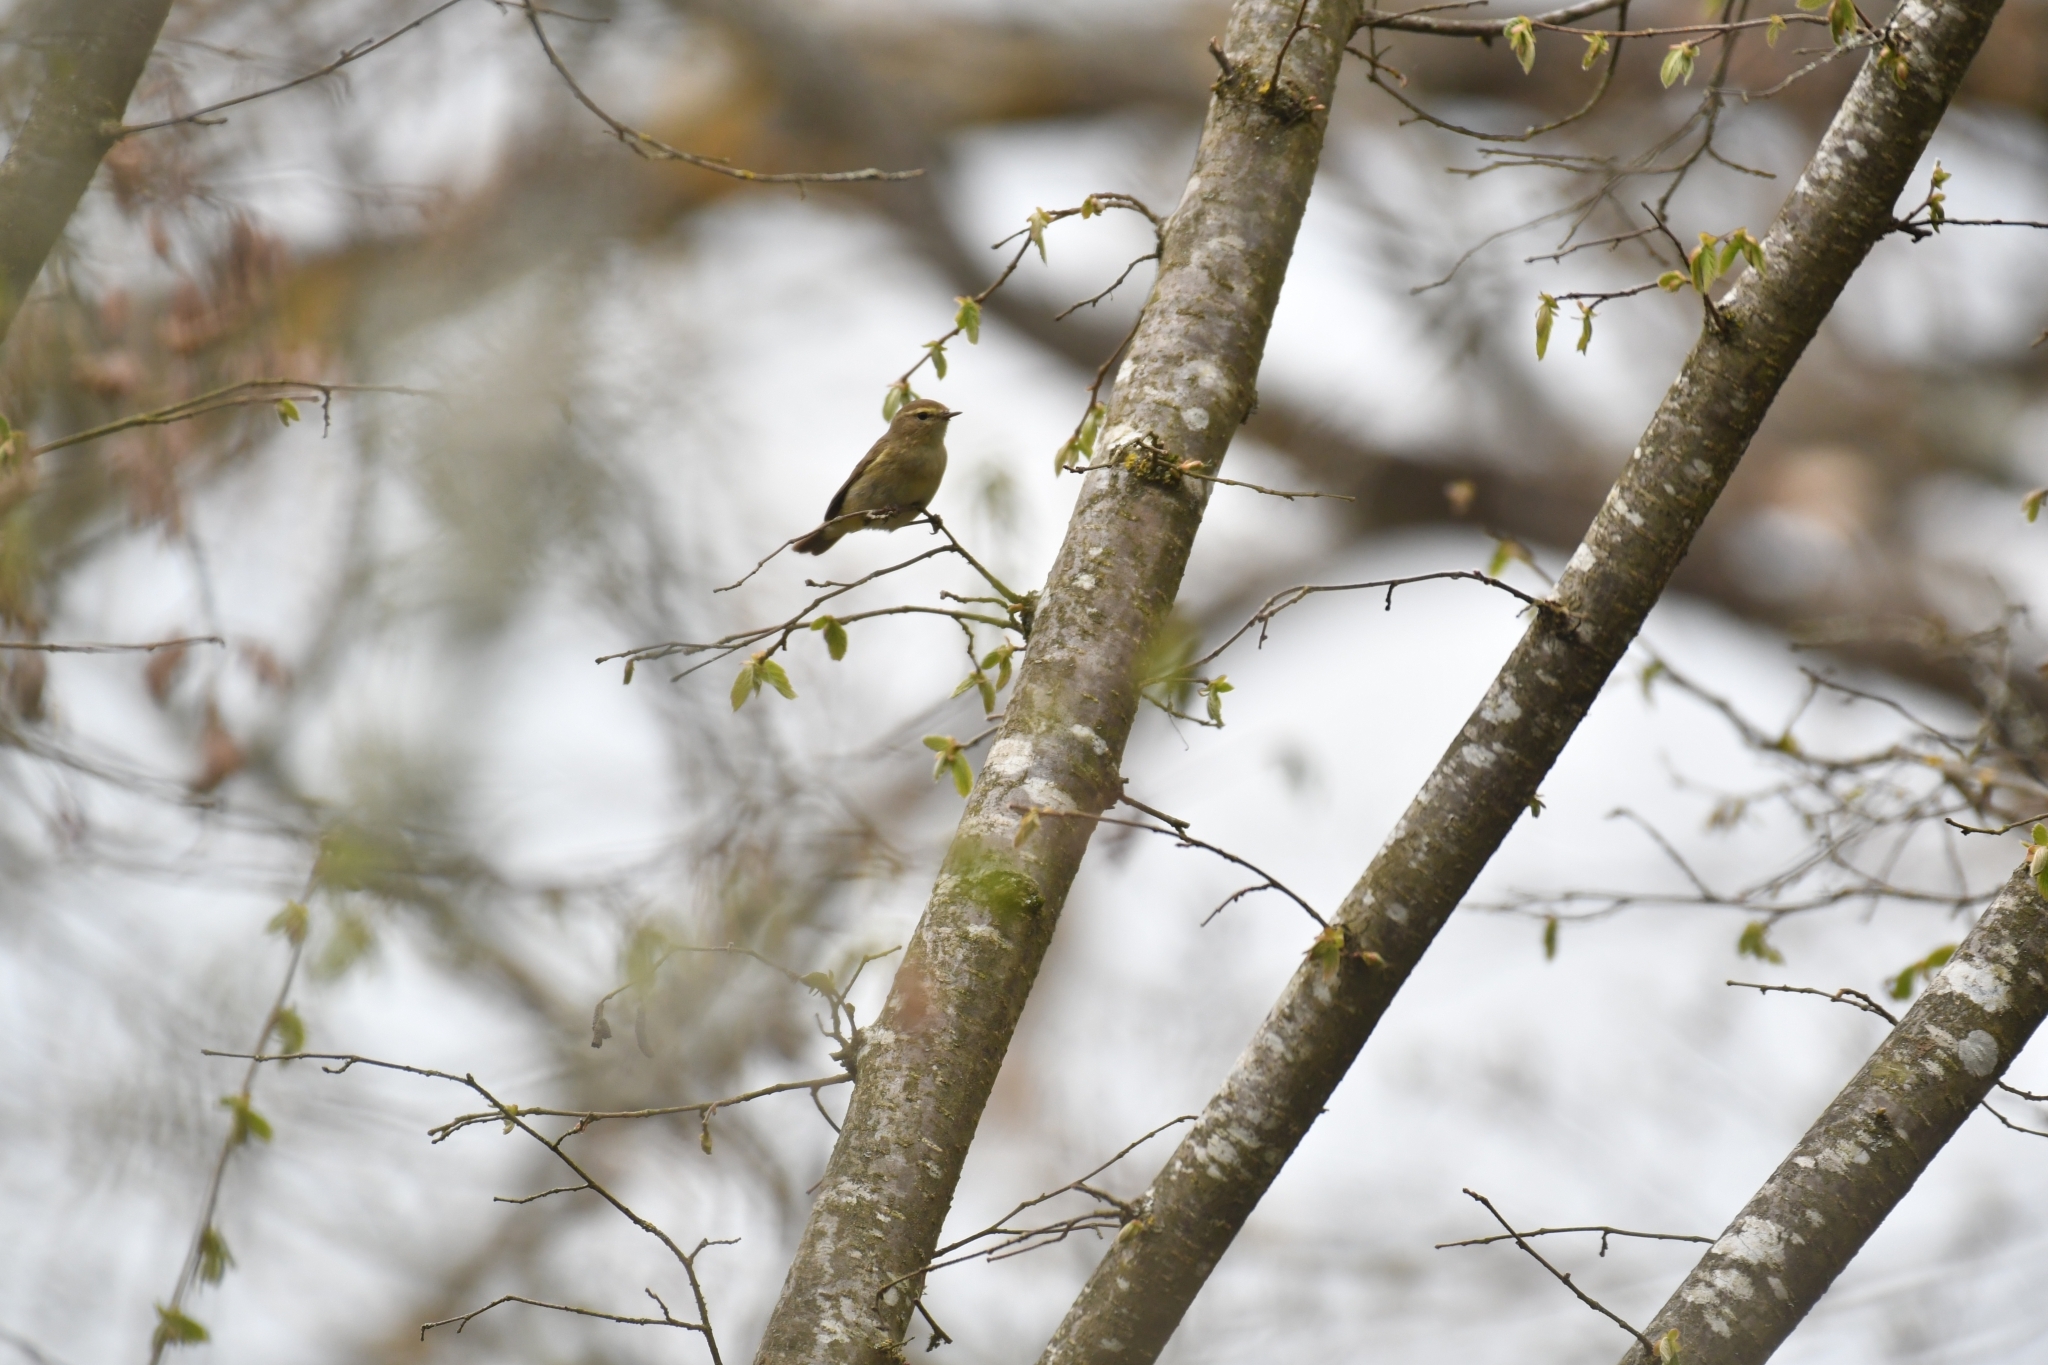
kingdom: Animalia
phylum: Chordata
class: Aves
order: Passeriformes
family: Phylloscopidae
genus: Phylloscopus
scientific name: Phylloscopus collybita
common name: Common chiffchaff
